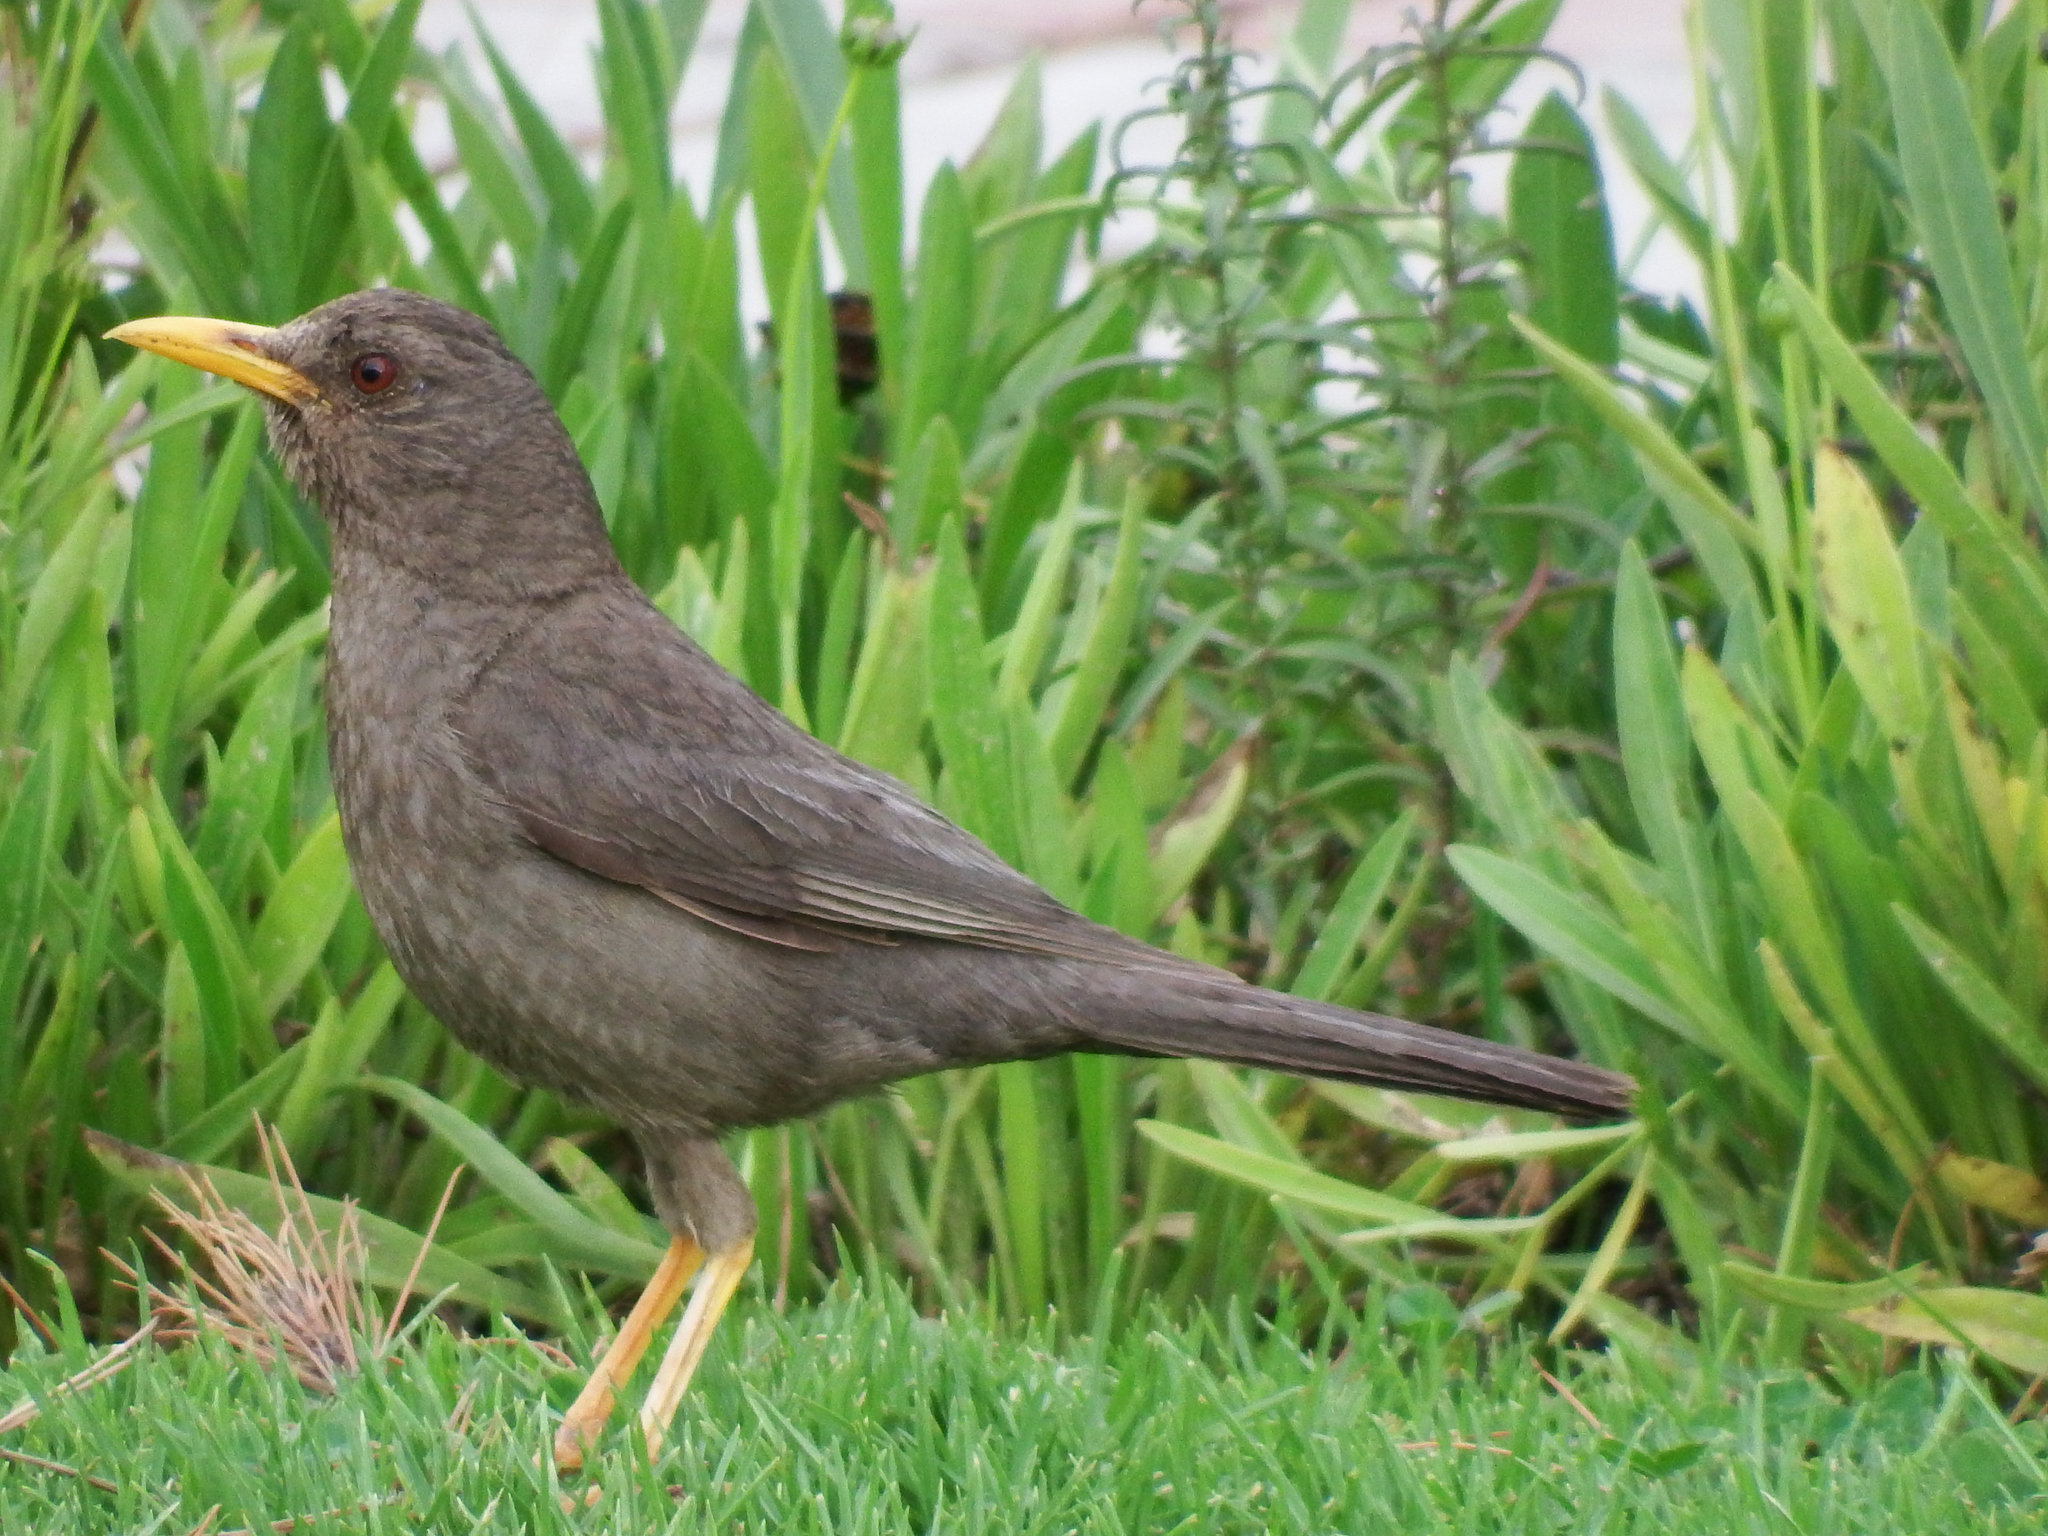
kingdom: Animalia
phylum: Chordata
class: Aves
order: Passeriformes
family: Turdidae
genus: Turdus
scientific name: Turdus chiguanco
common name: Chiguanco thrush
